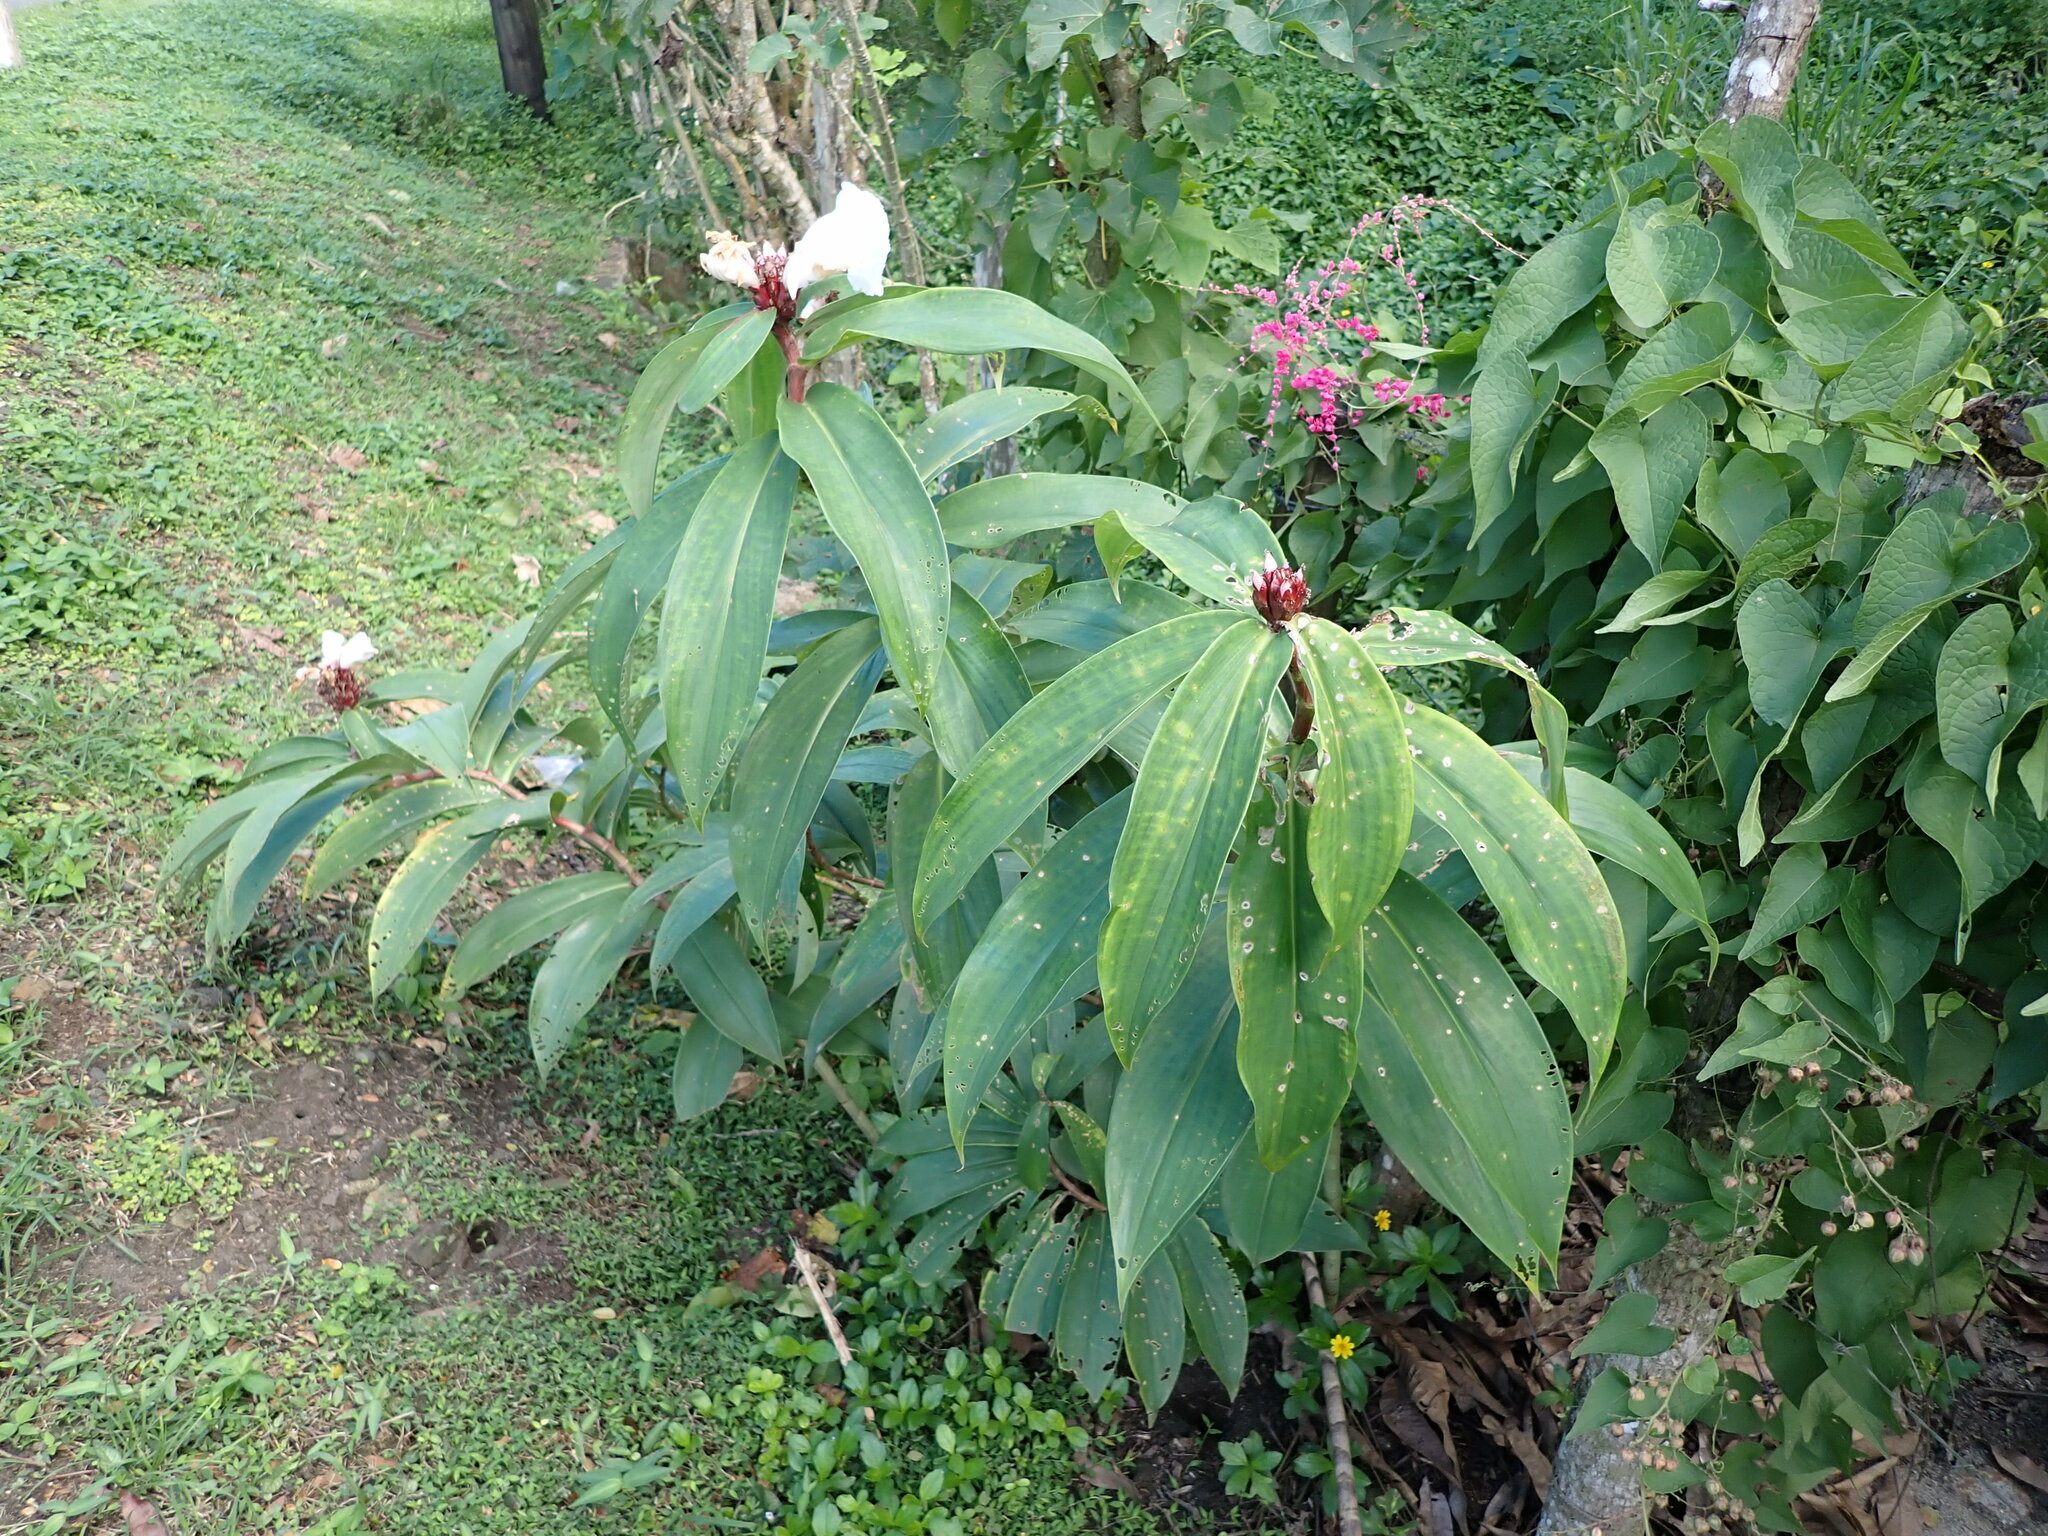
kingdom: Plantae
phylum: Tracheophyta
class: Liliopsida
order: Zingiberales
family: Costaceae
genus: Hellenia
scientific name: Hellenia speciosa
